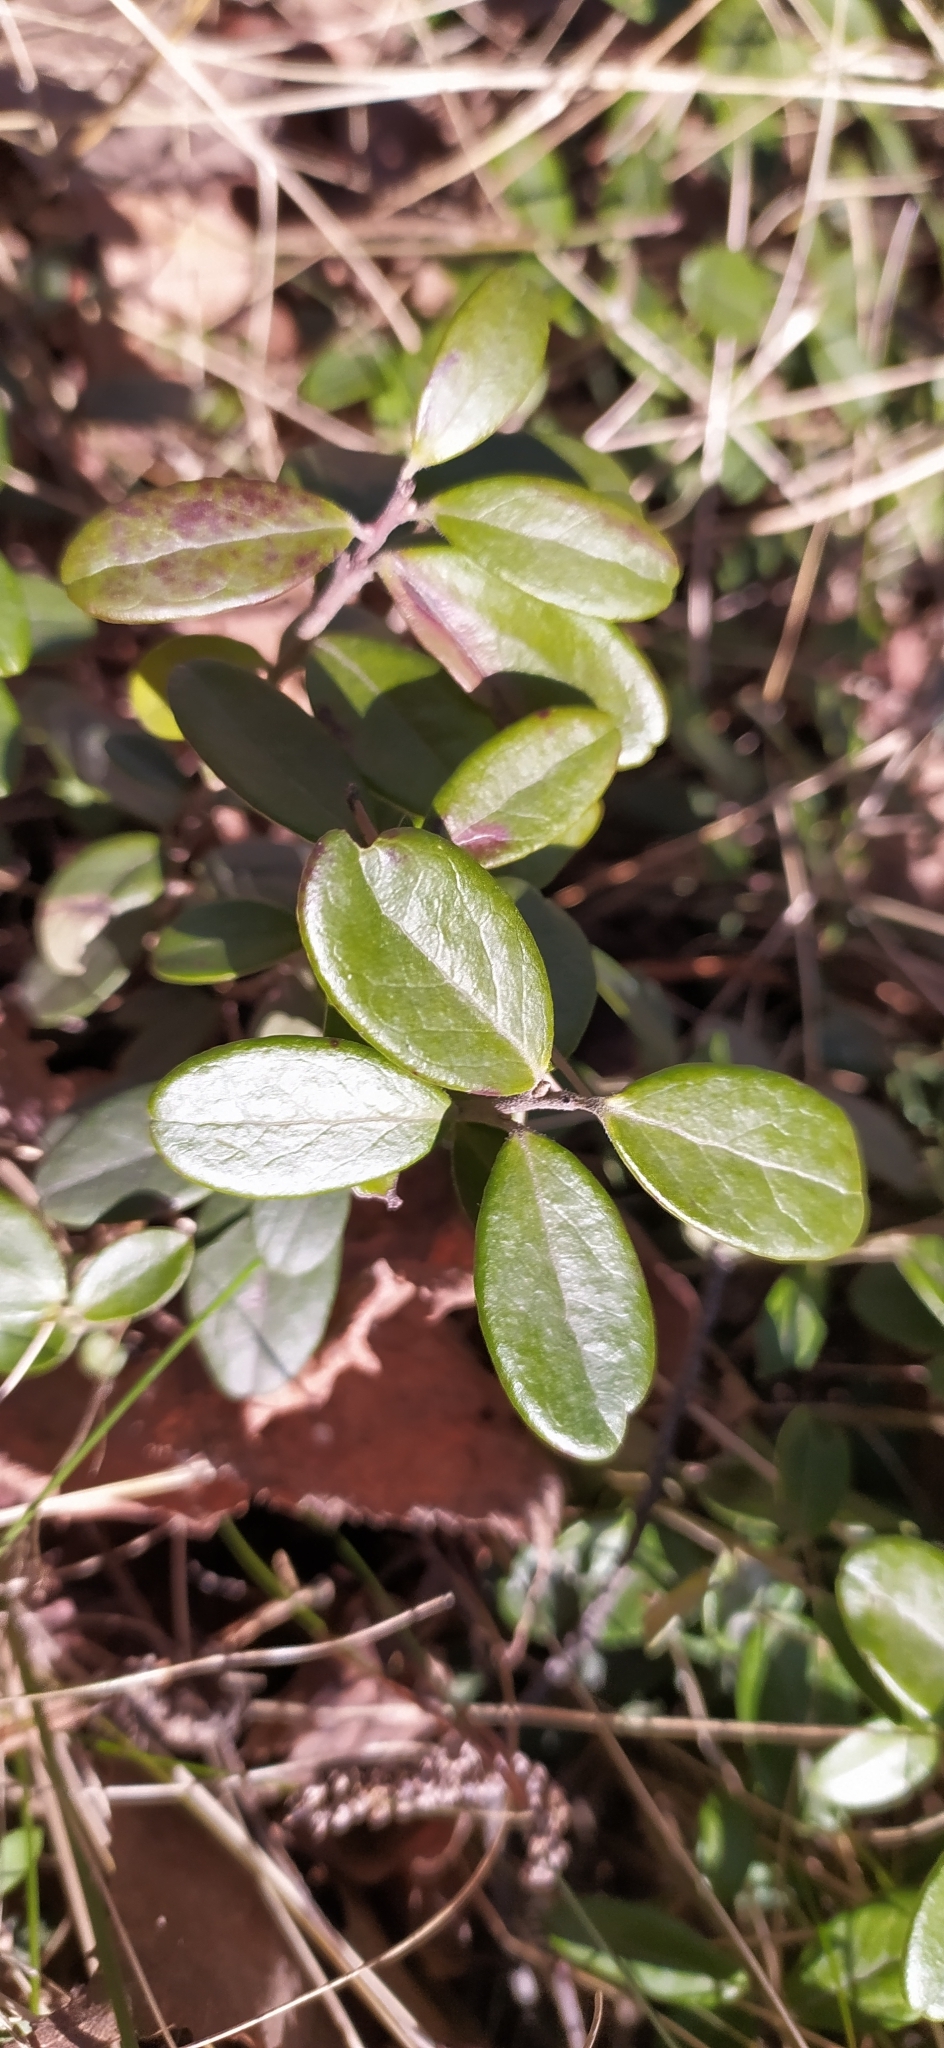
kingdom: Plantae
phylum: Tracheophyta
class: Magnoliopsida
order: Ericales
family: Ericaceae
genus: Vaccinium
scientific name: Vaccinium vitis-idaea
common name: Cowberry
